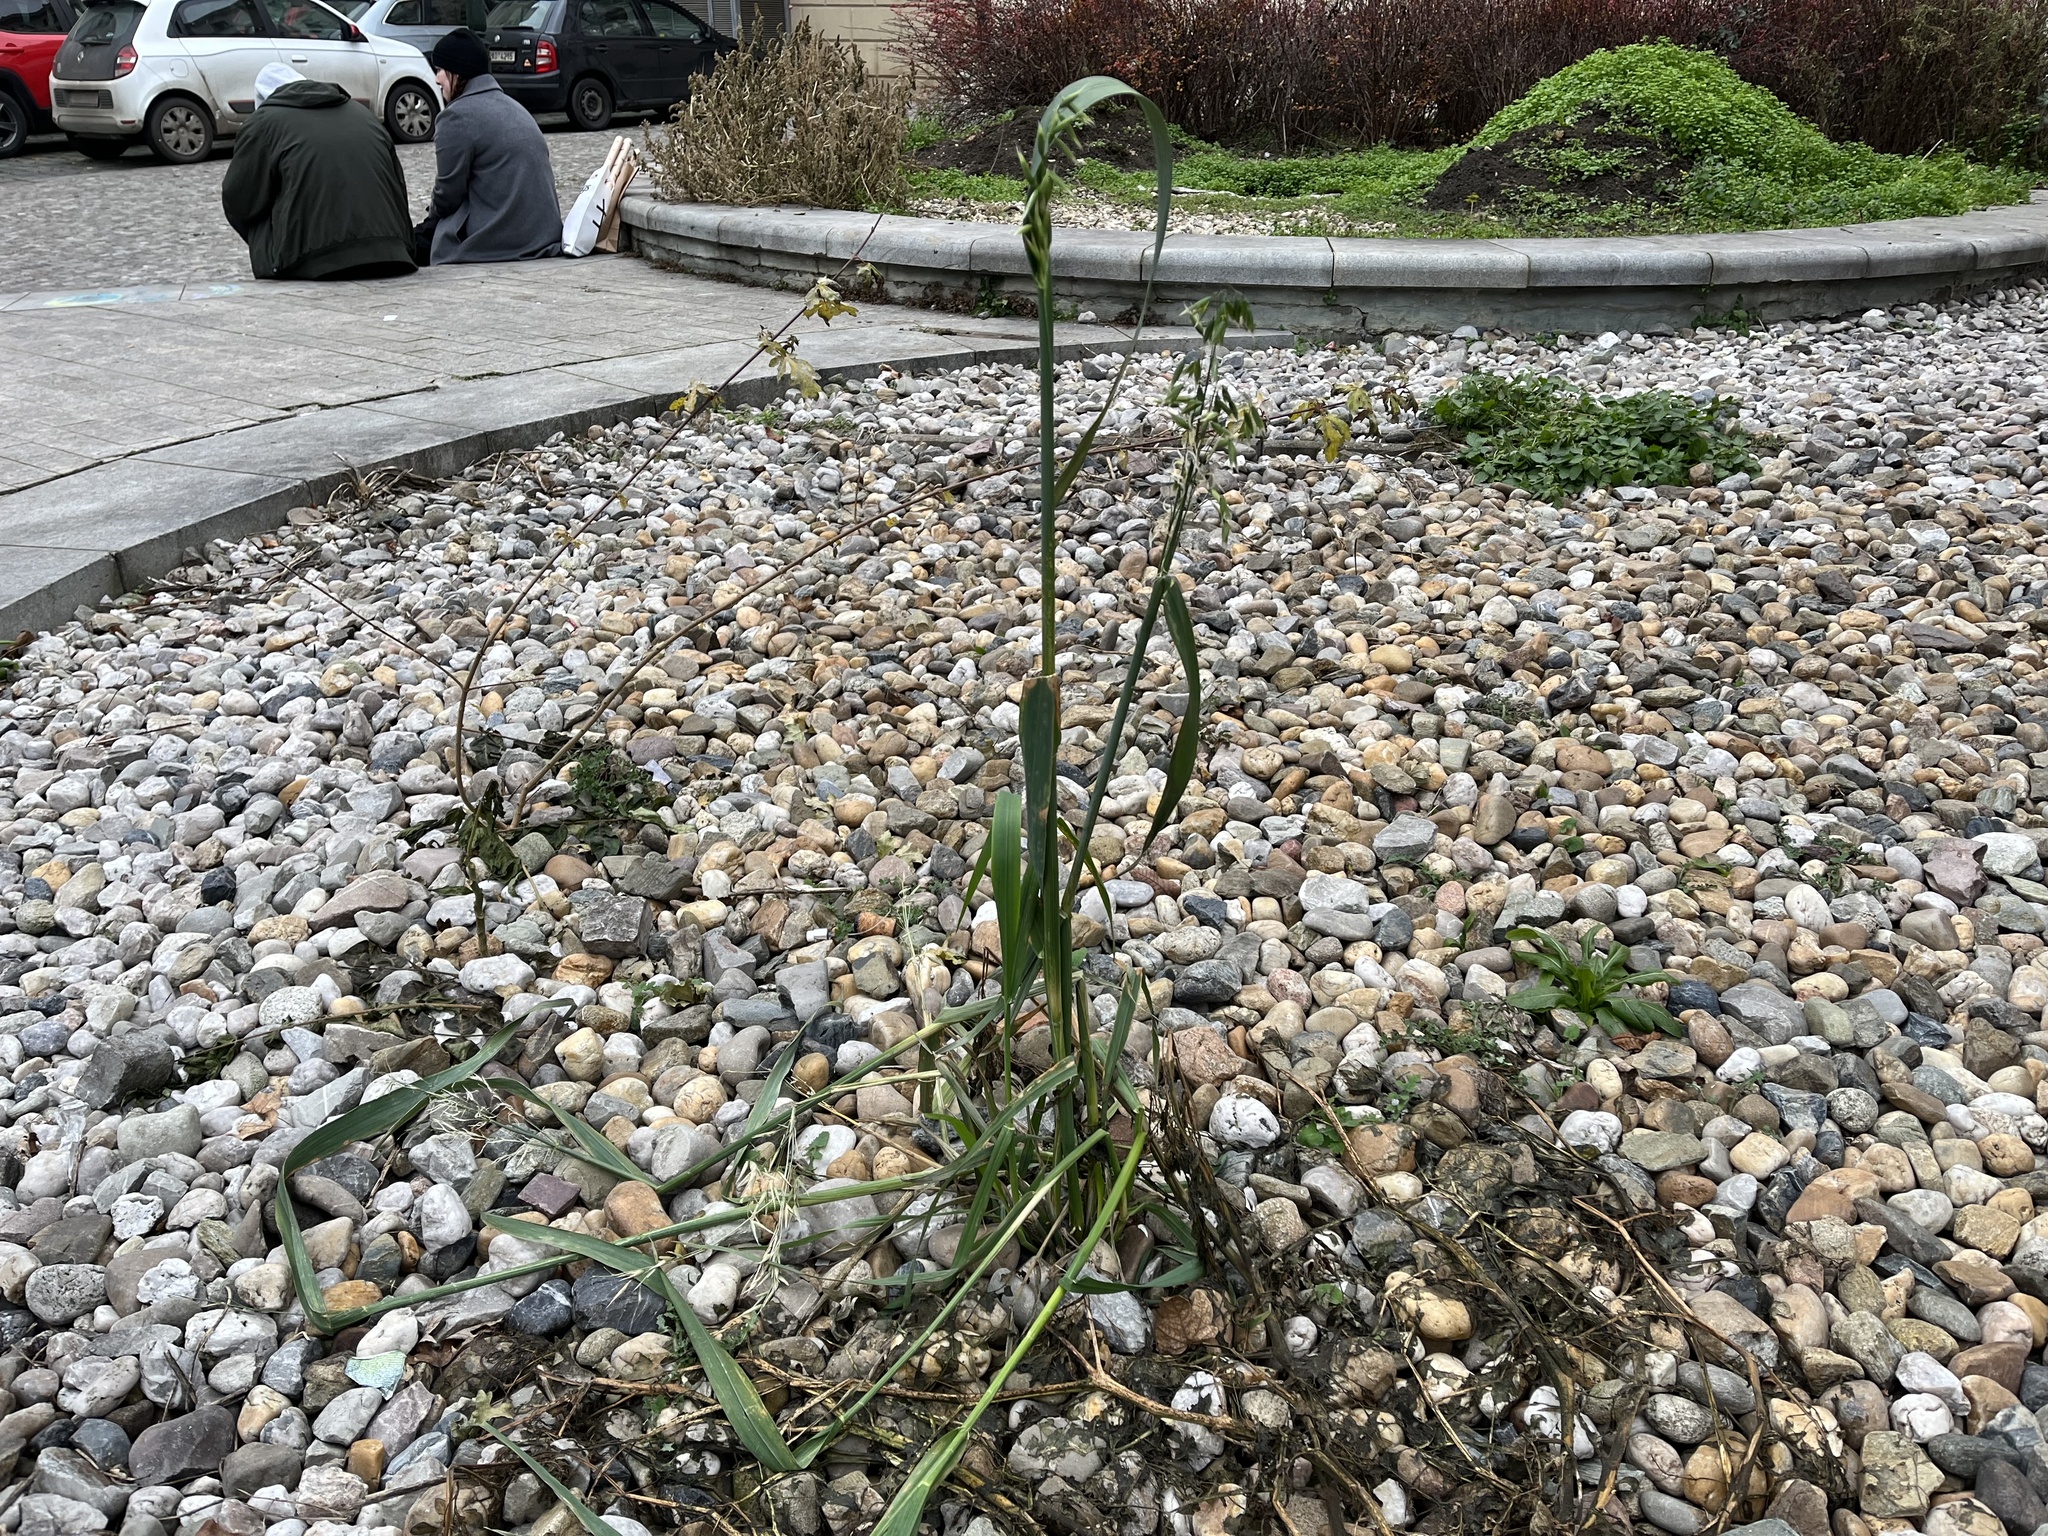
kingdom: Plantae
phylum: Tracheophyta
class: Liliopsida
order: Poales
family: Poaceae
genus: Avena
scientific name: Avena sativa
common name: Oat
